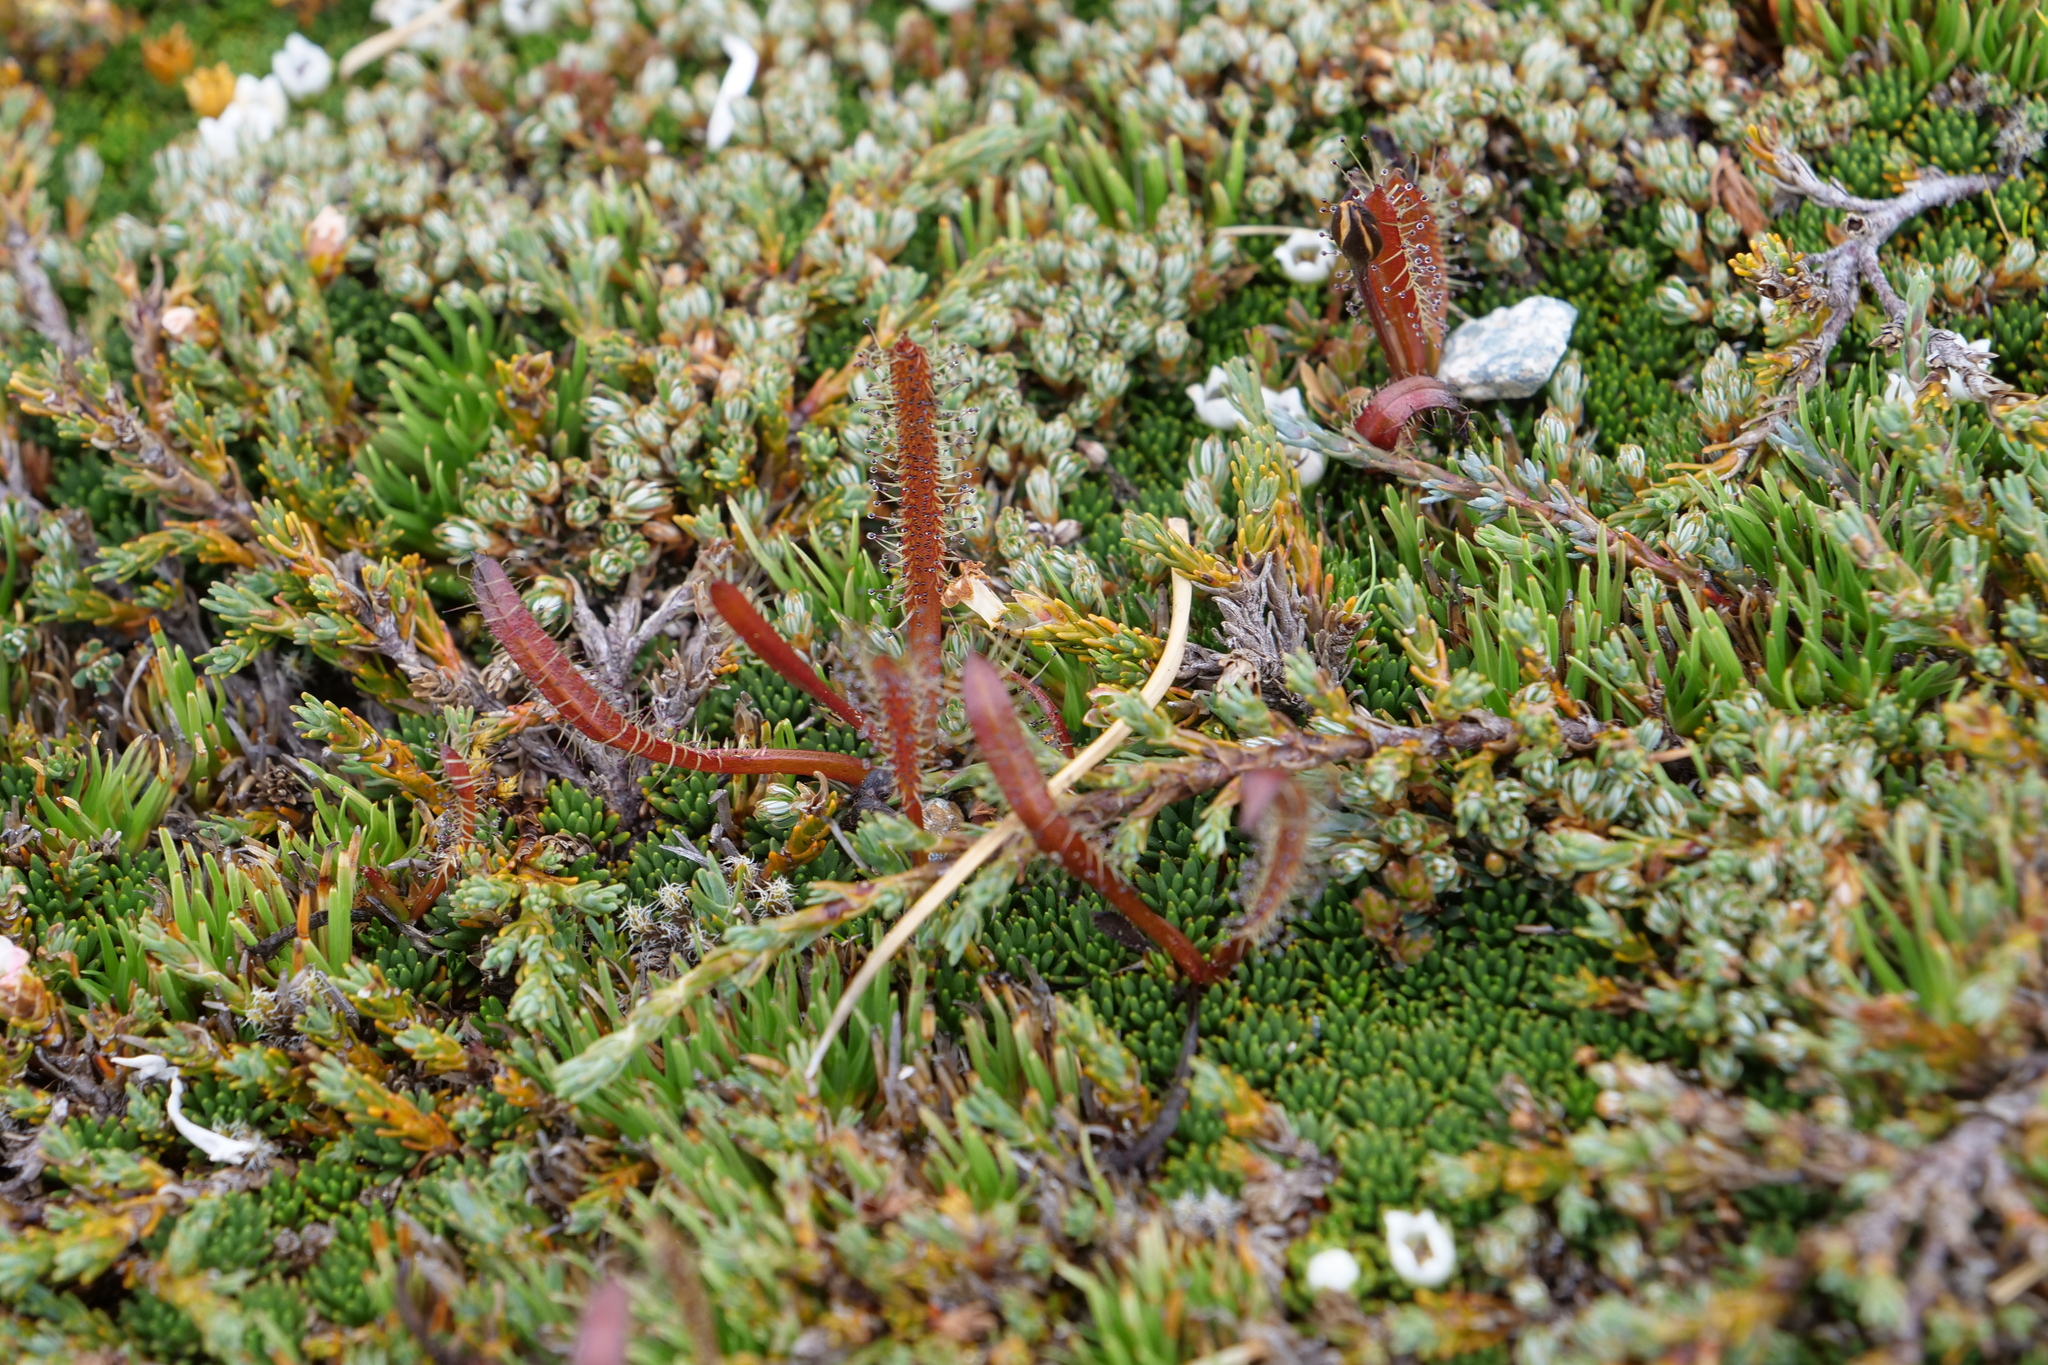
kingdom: Plantae
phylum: Tracheophyta
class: Magnoliopsida
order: Caryophyllales
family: Droseraceae
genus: Drosera
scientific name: Drosera arcturi
